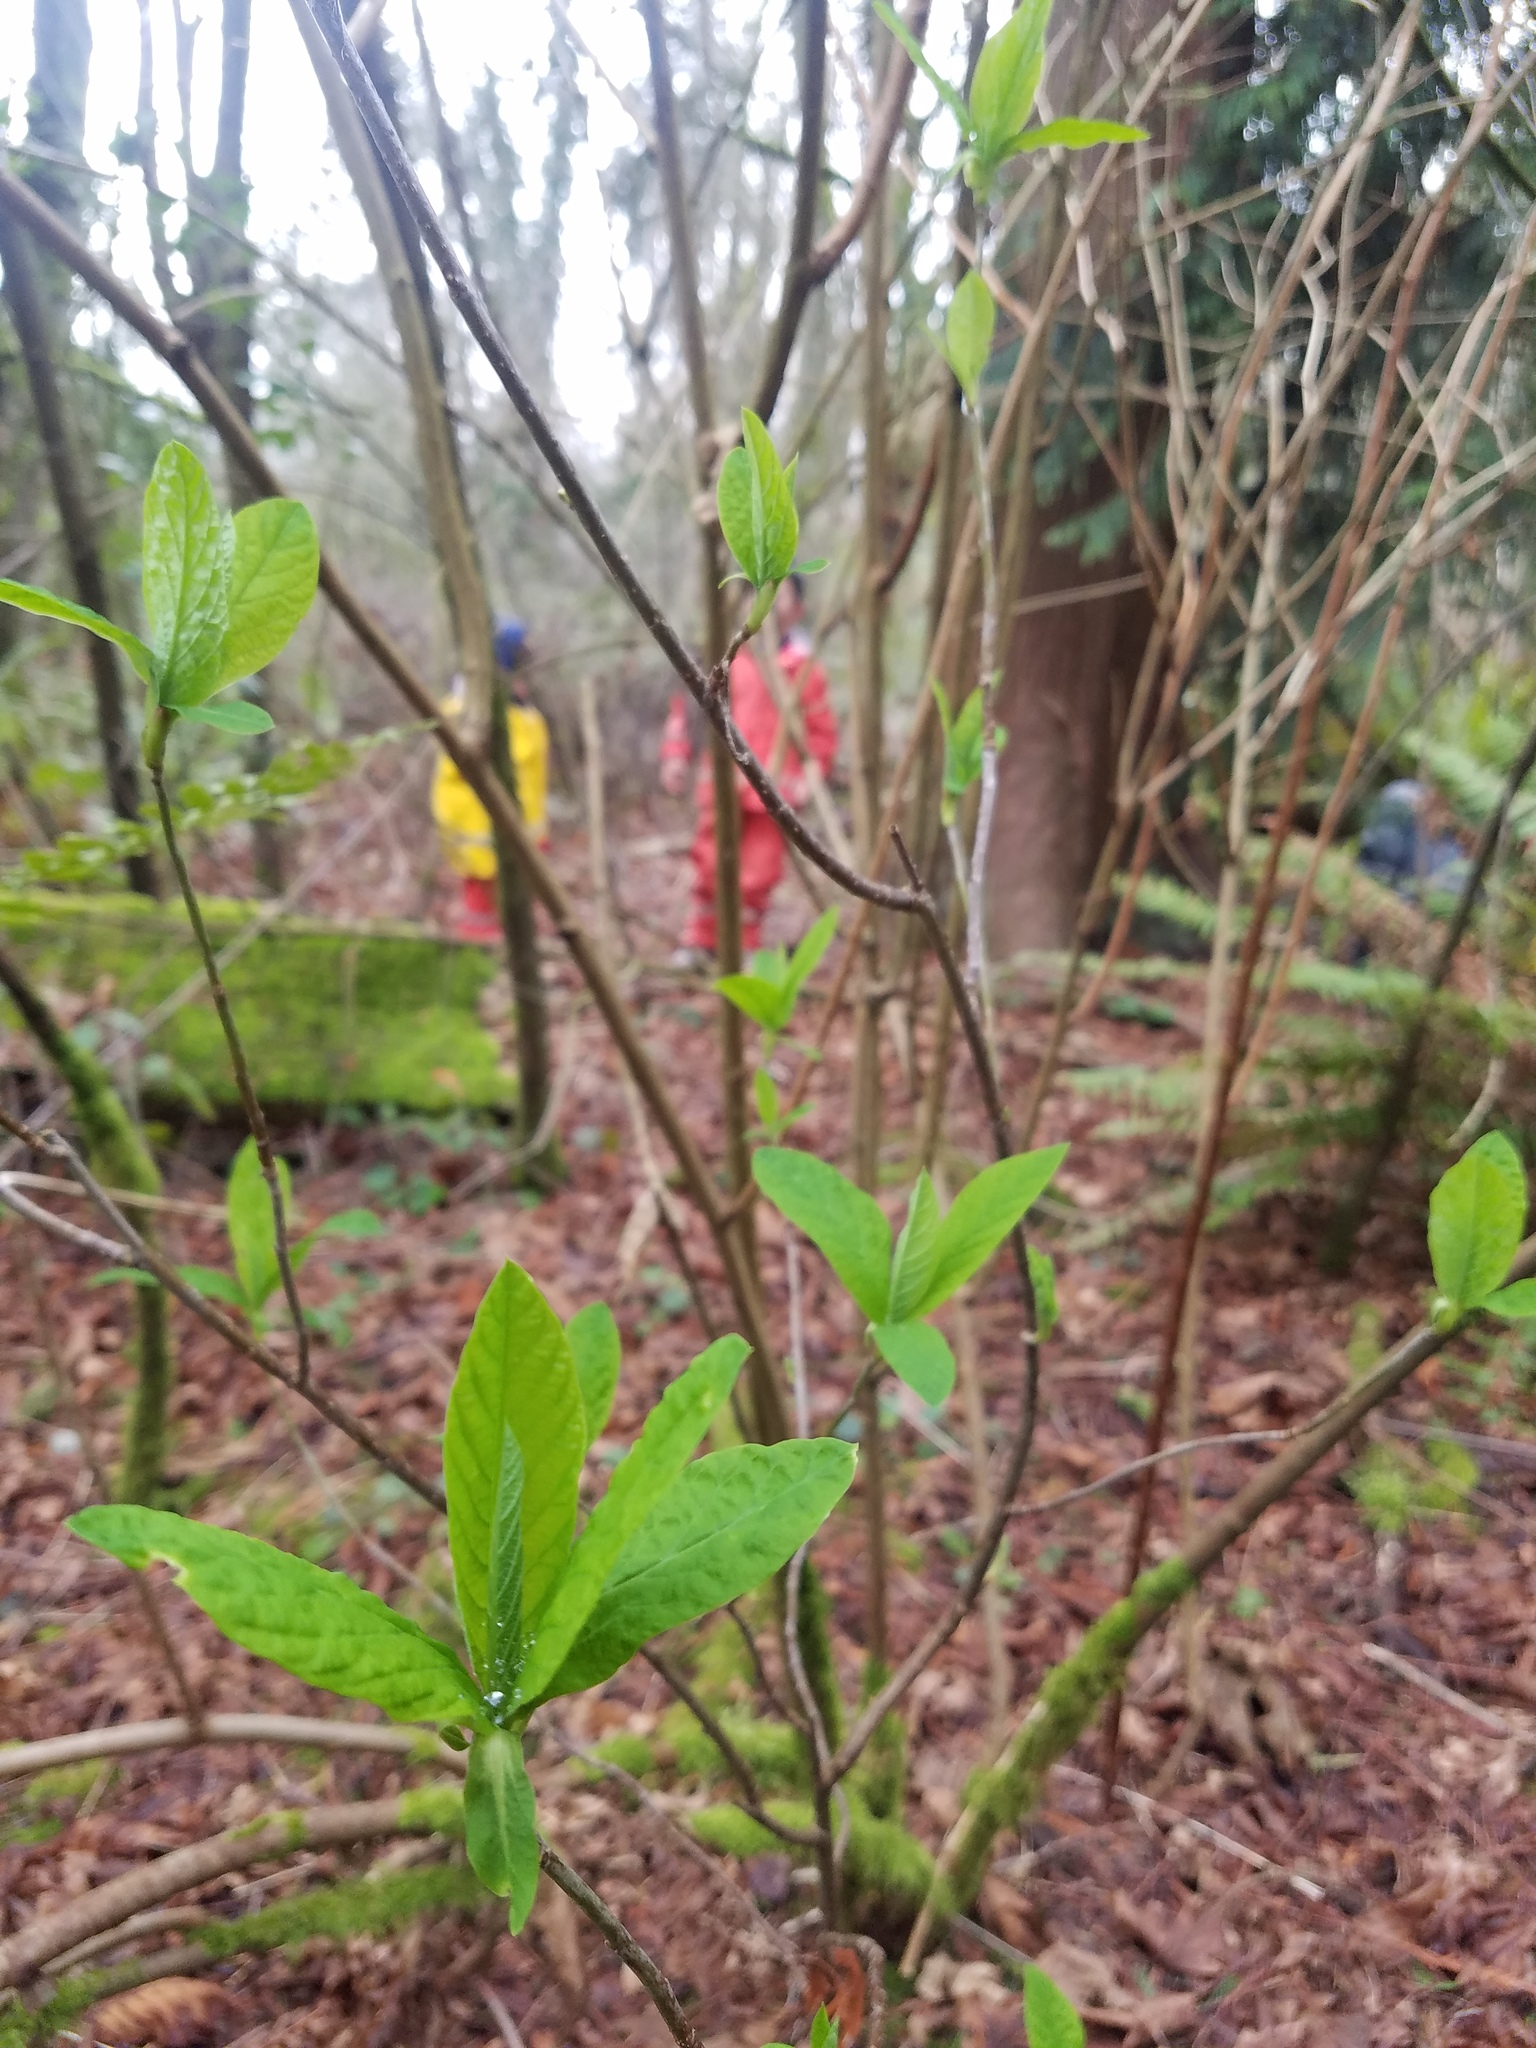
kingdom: Plantae
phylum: Tracheophyta
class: Magnoliopsida
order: Rosales
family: Rosaceae
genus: Oemleria
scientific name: Oemleria cerasiformis
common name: Osoberry
